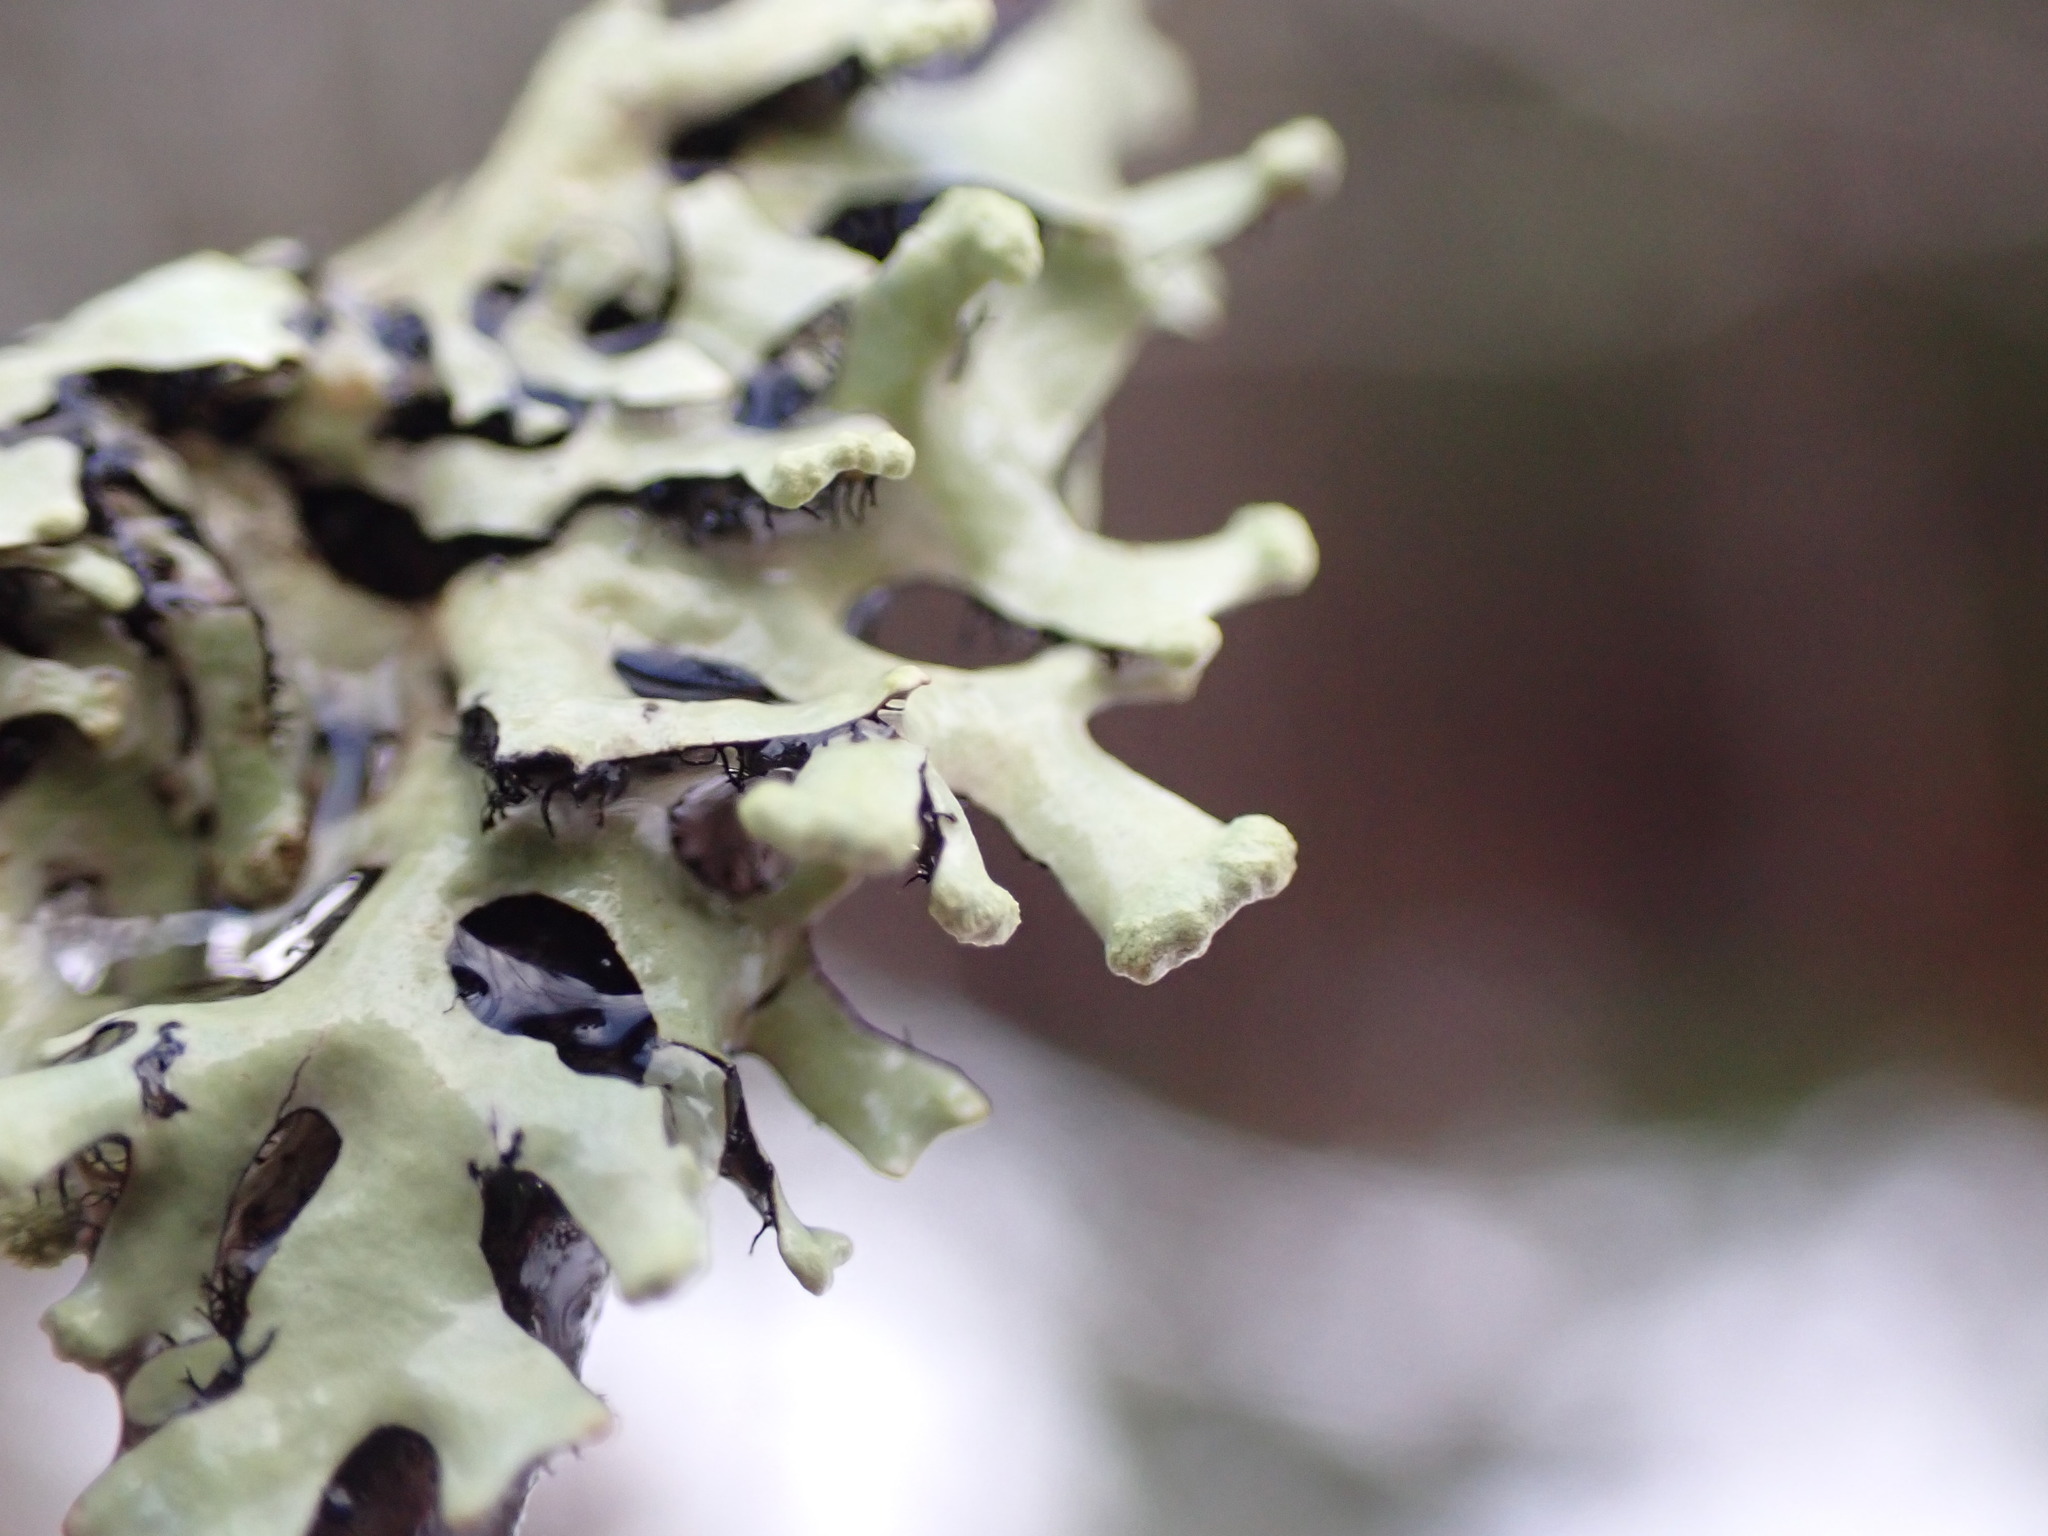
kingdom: Fungi
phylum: Ascomycota
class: Lecanoromycetes
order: Lecanorales
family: Parmeliaceae
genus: Hypotrachyna
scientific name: Hypotrachyna sinuosa
